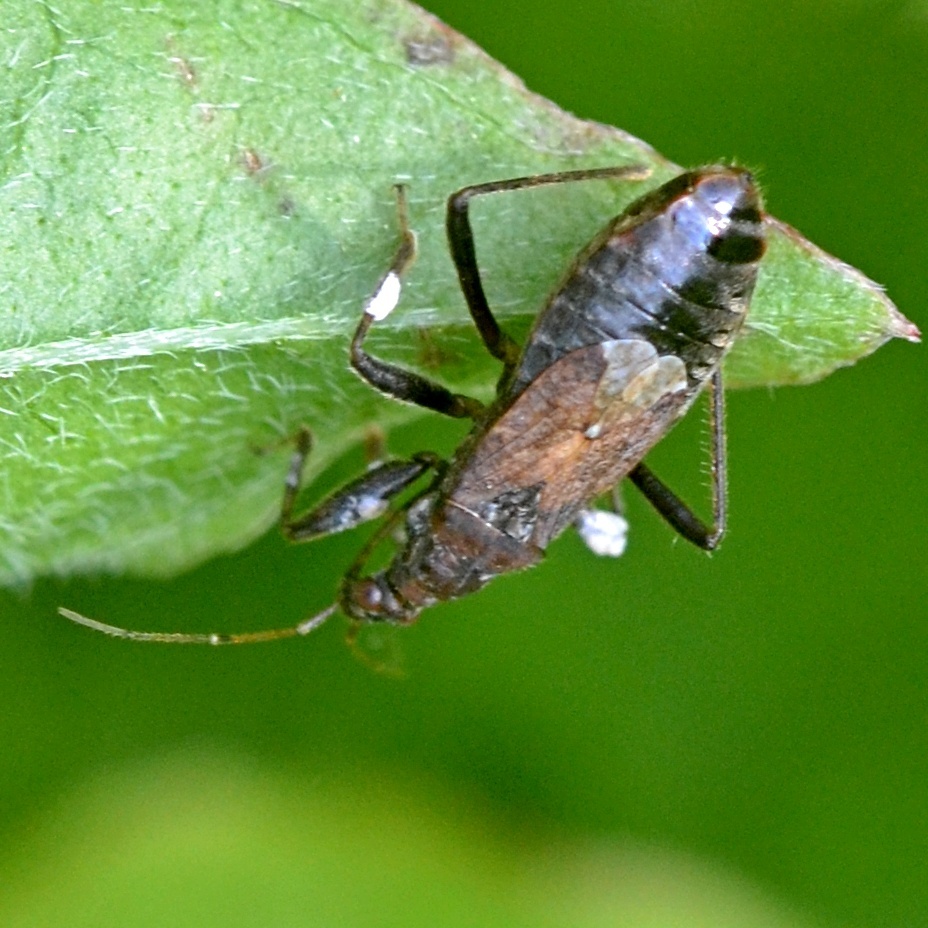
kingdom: Animalia
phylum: Arthropoda
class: Insecta
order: Hemiptera
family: Nabidae
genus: Himacerus
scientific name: Himacerus mirmicoides
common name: Ant damsel bug
